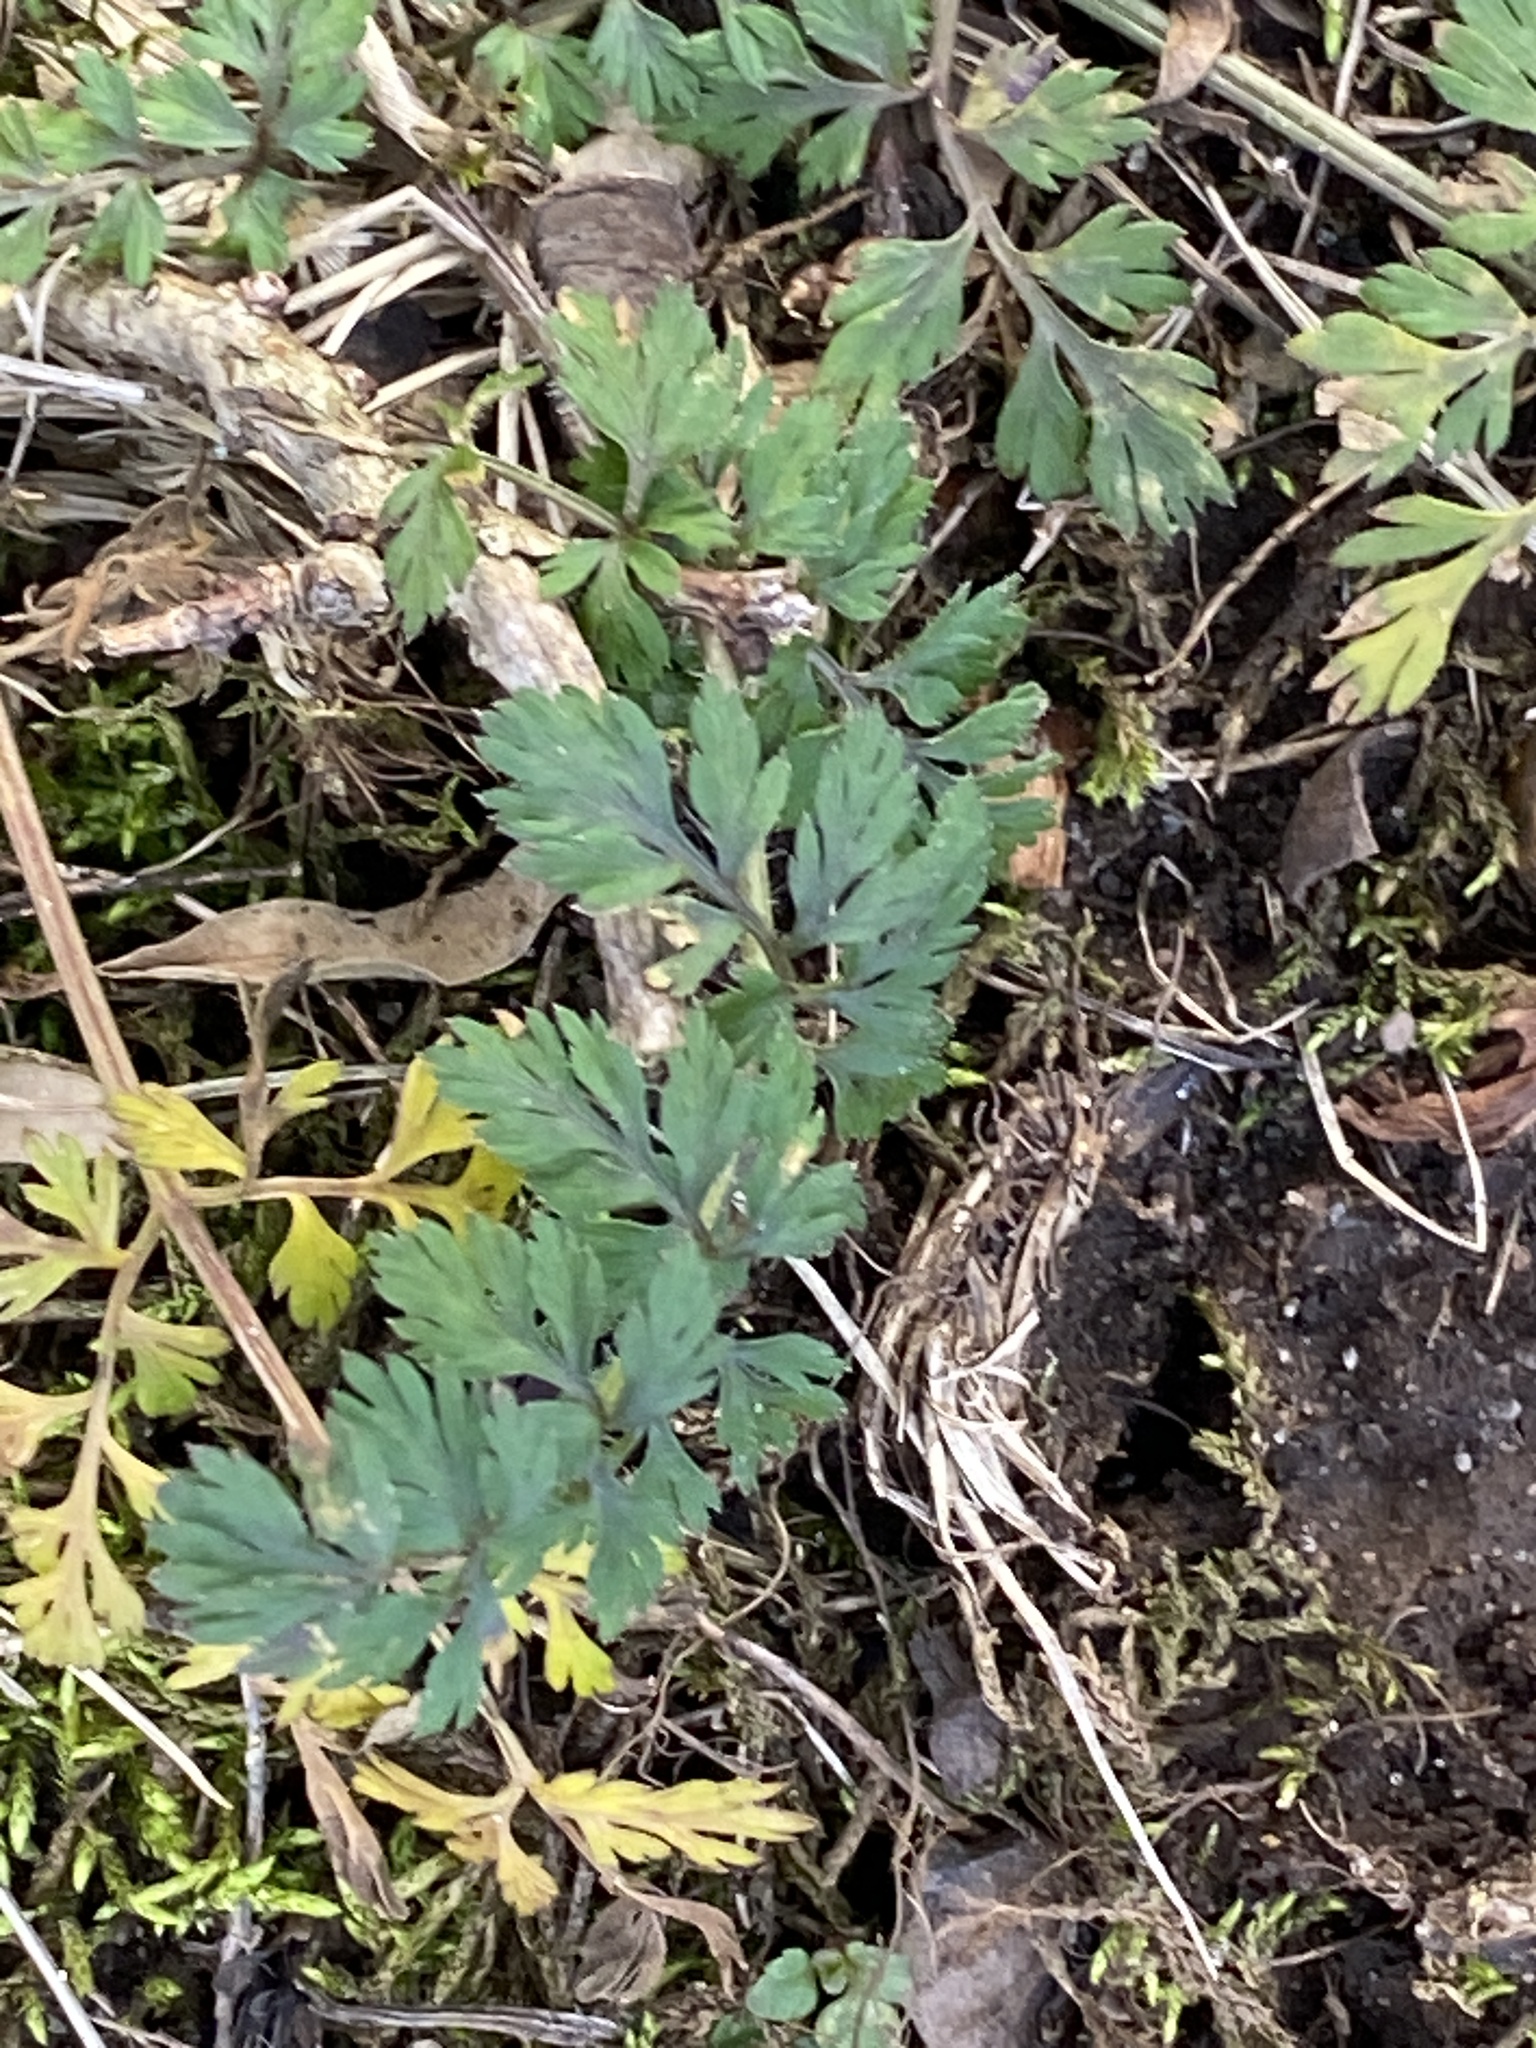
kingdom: Plantae
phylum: Tracheophyta
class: Magnoliopsida
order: Apiales
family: Apiaceae
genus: Daucus
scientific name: Daucus carota
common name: Wild carrot
